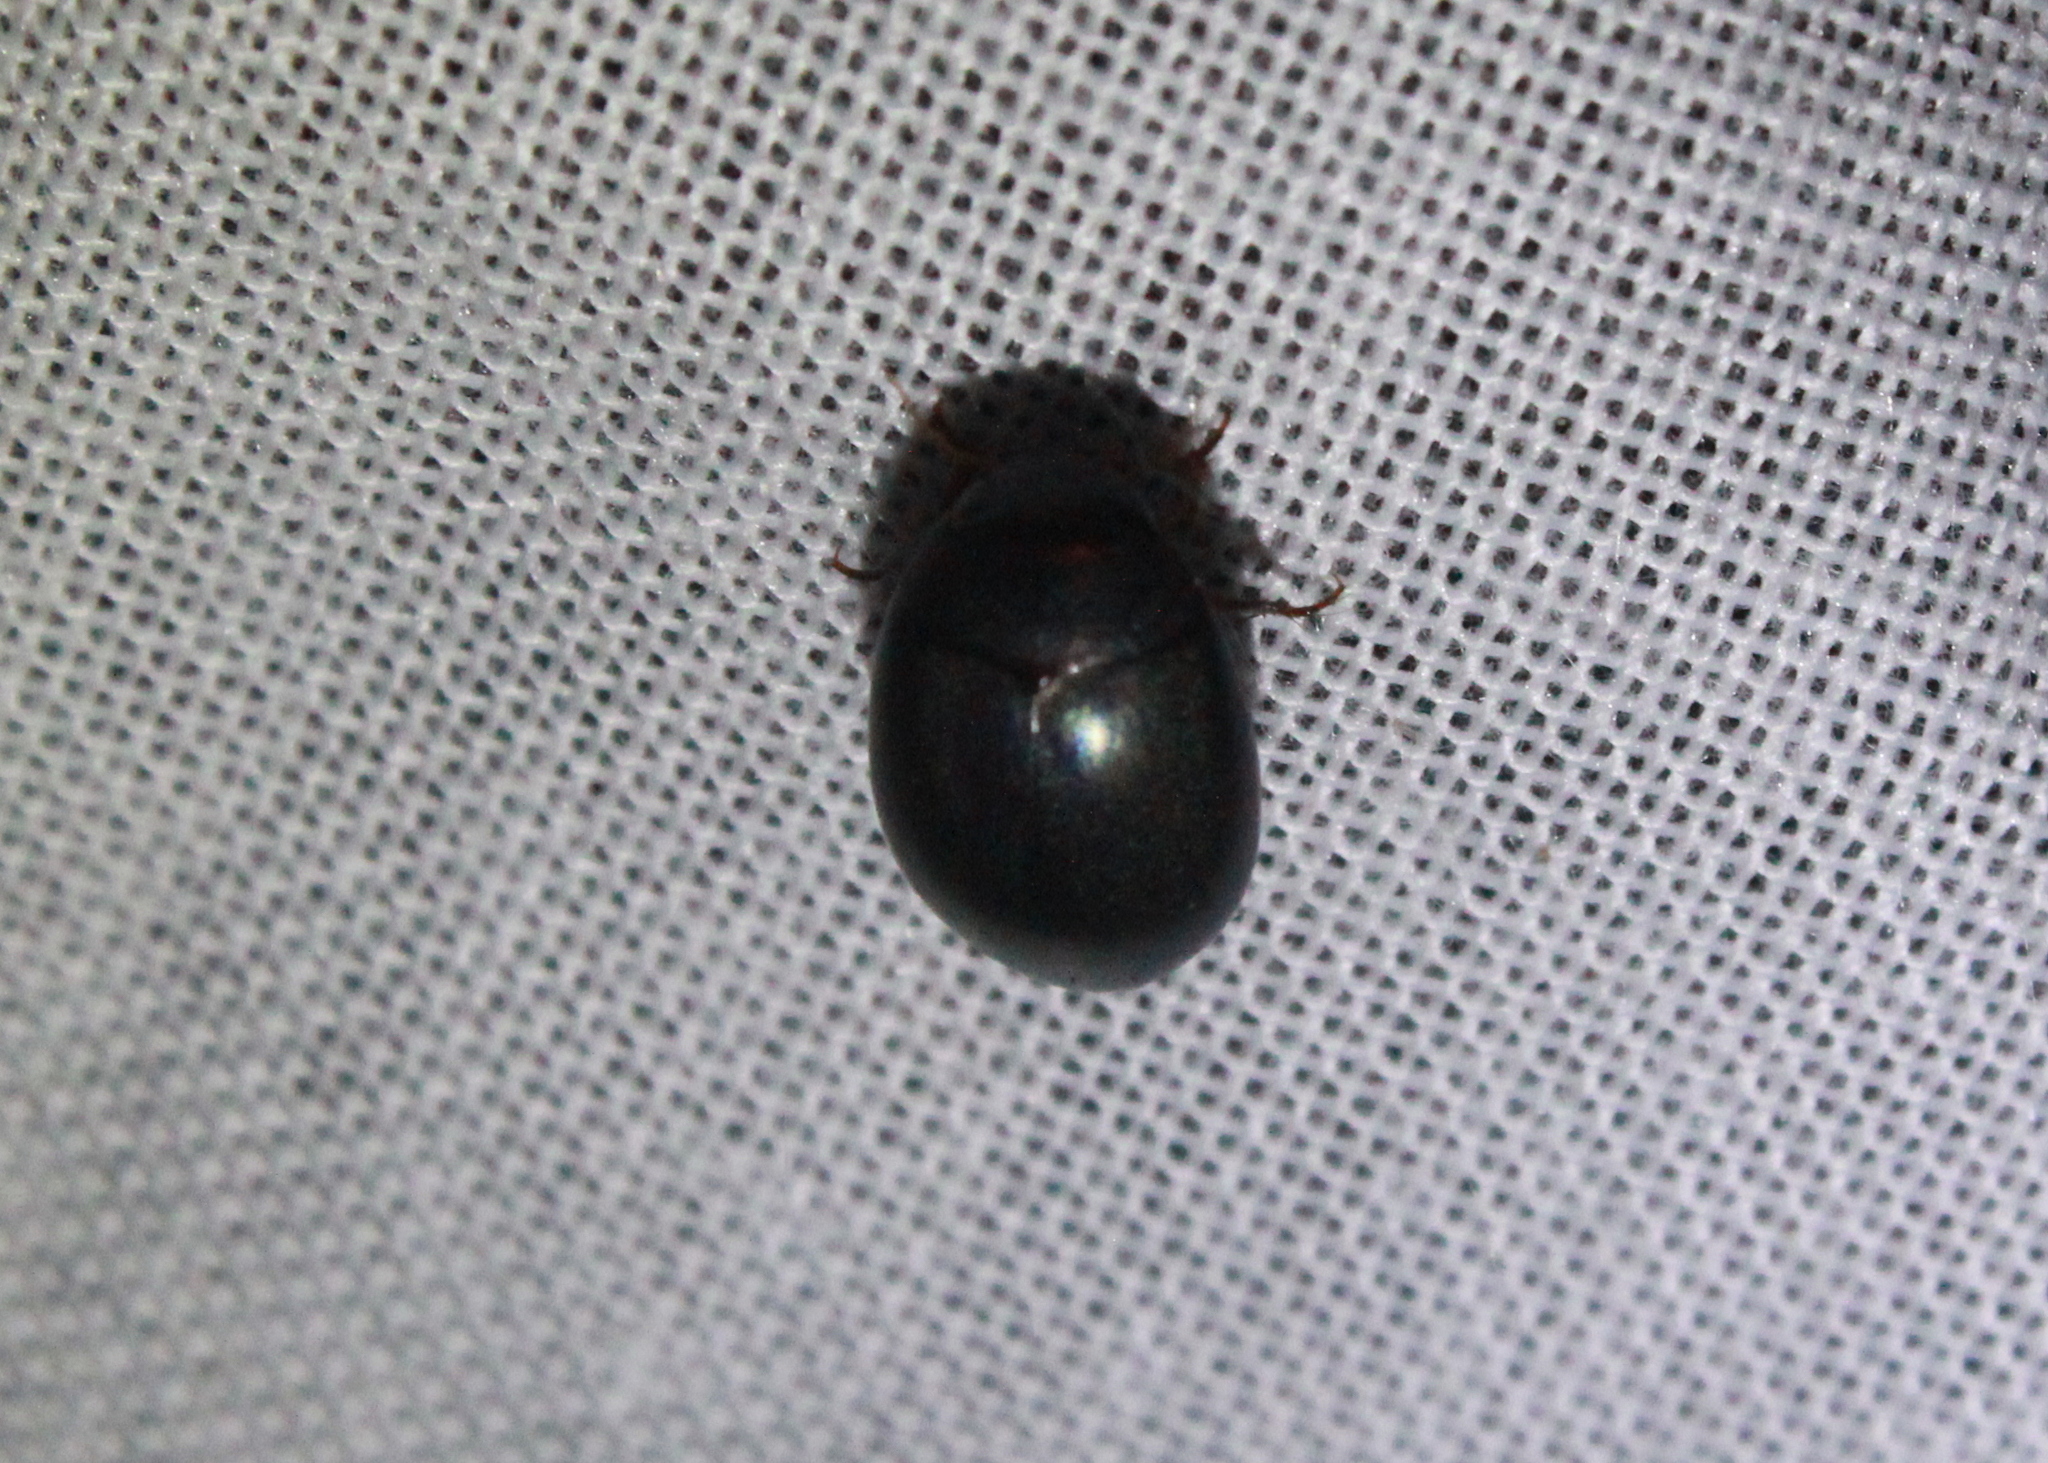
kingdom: Animalia
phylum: Arthropoda
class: Insecta
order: Coleoptera
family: Dytiscidae
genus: Ilybius
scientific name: Ilybius
